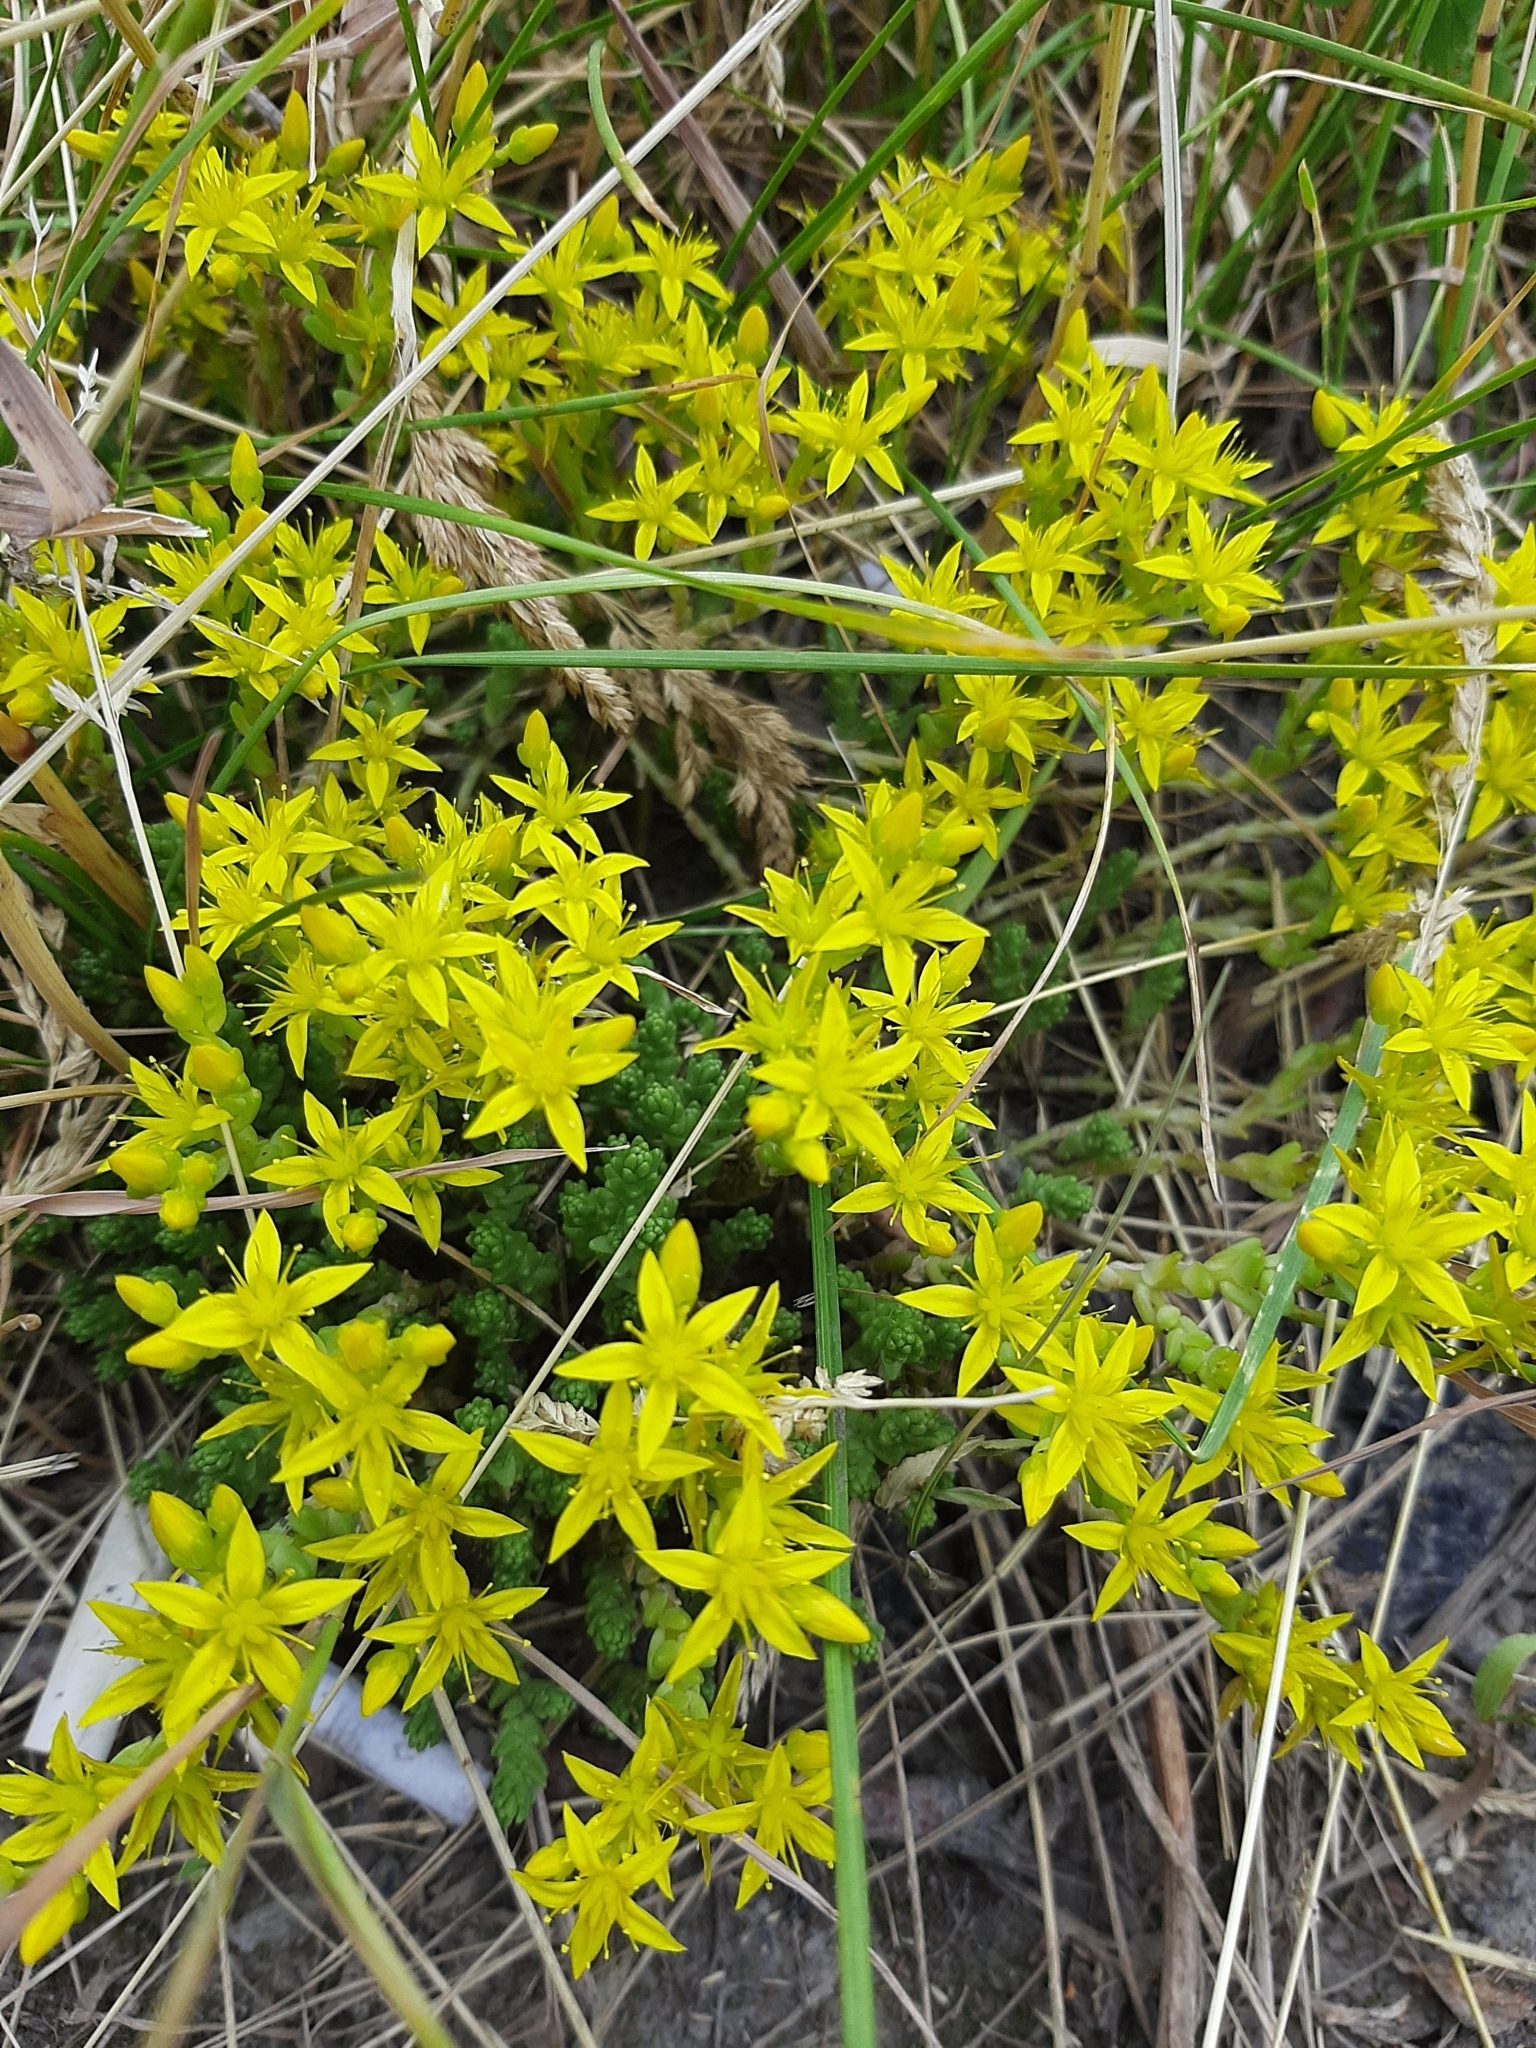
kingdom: Plantae
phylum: Tracheophyta
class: Magnoliopsida
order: Saxifragales
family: Crassulaceae
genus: Sedum
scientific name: Sedum acre
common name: Biting stonecrop
